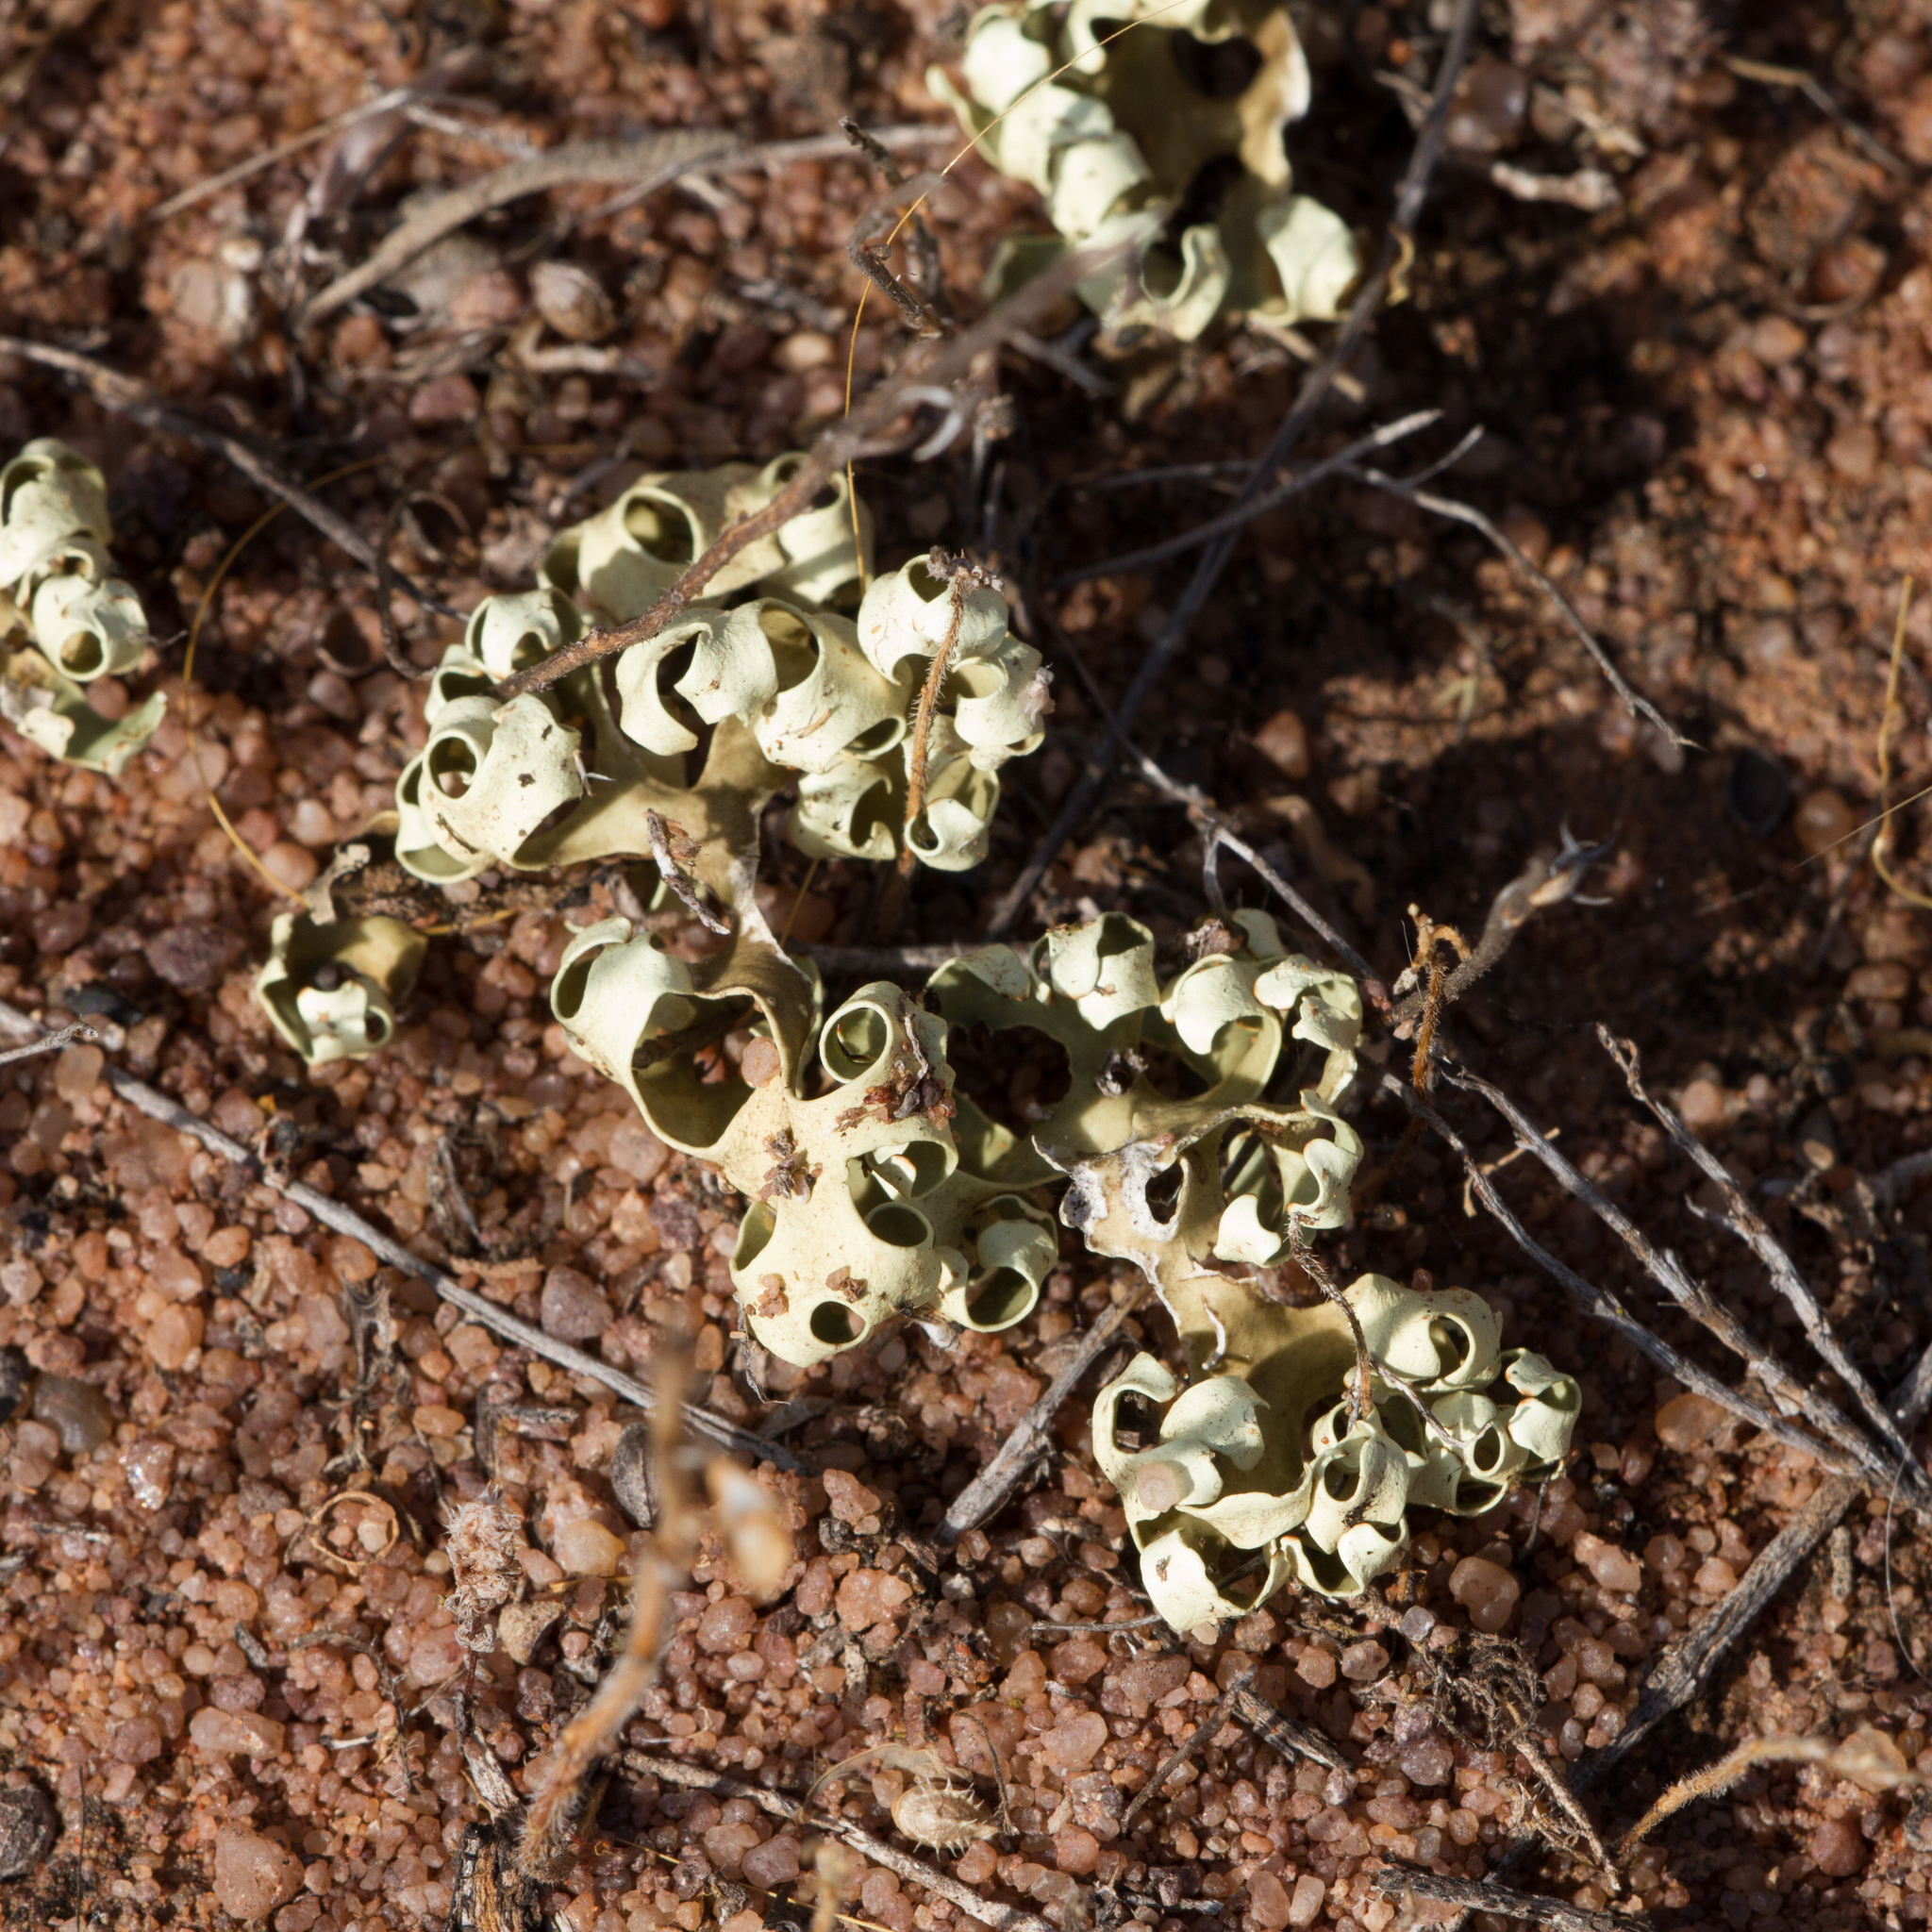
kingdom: Fungi
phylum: Ascomycota
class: Lecanoromycetes
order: Lecanorales
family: Parmeliaceae
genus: Xanthoparmelia
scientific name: Xanthoparmelia semiviridis
